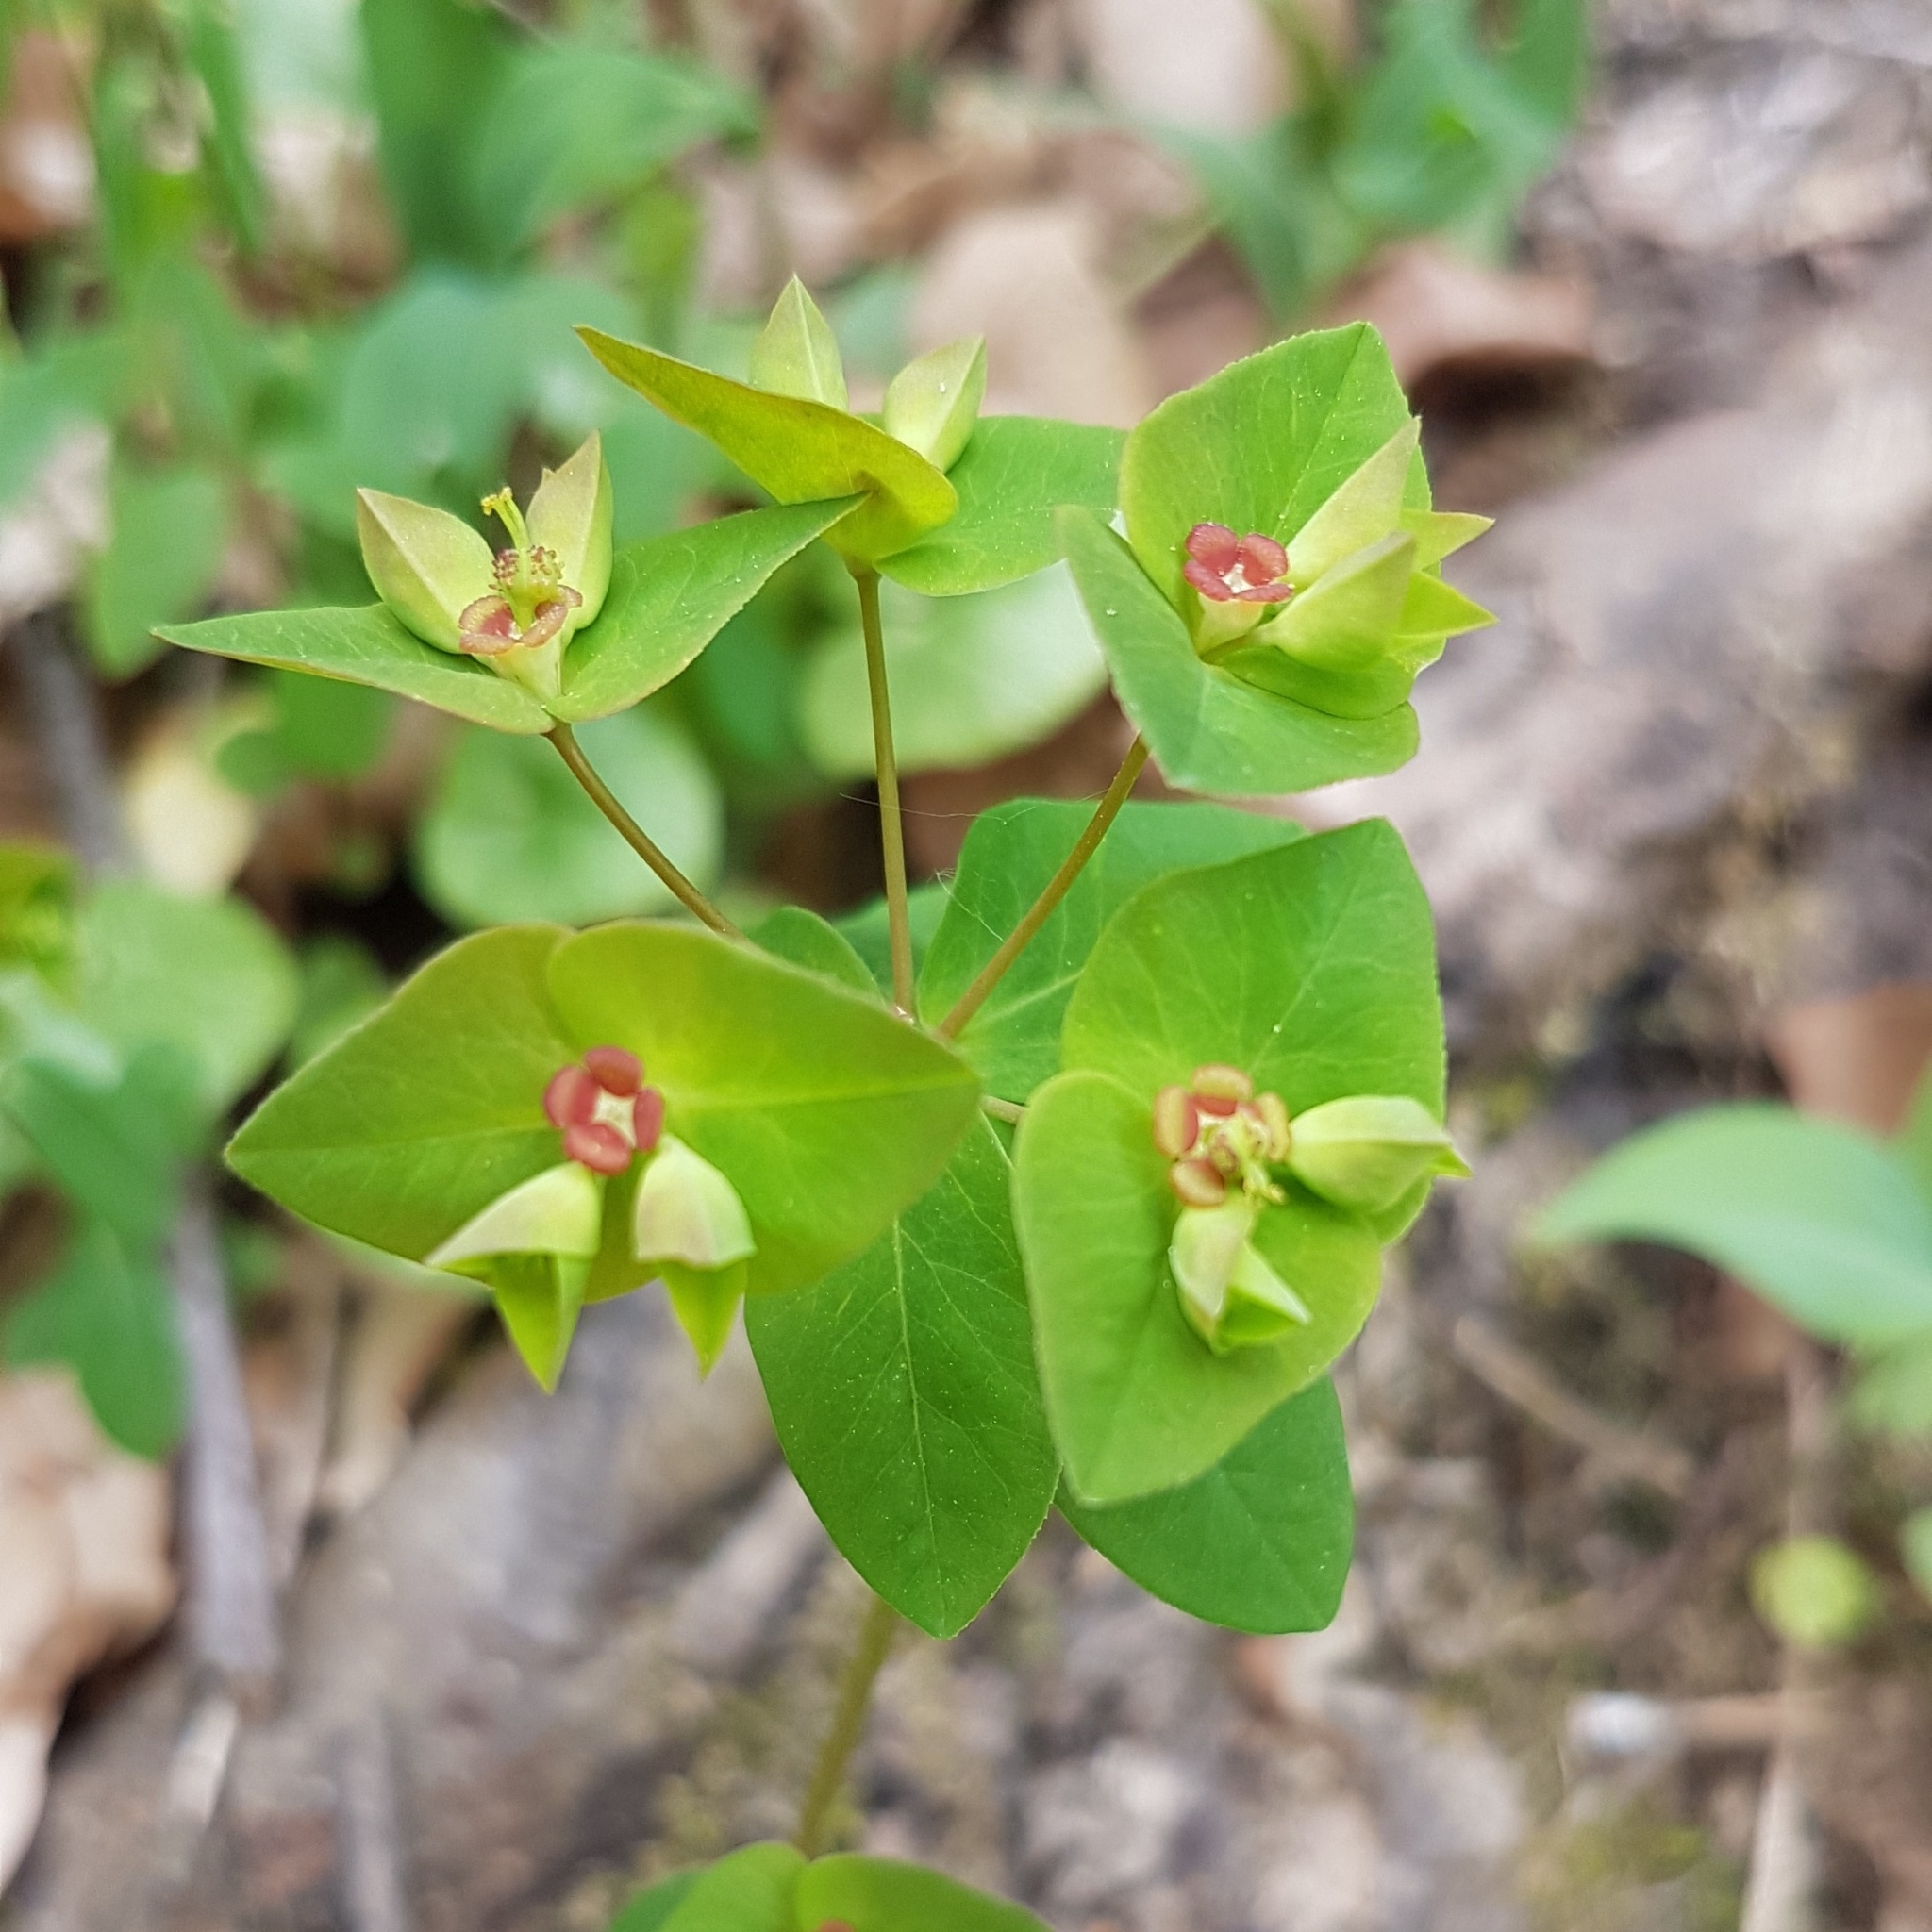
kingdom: Plantae
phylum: Tracheophyta
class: Magnoliopsida
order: Malpighiales
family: Euphorbiaceae
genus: Euphorbia
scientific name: Euphorbia dulcis
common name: Sweet spurge
